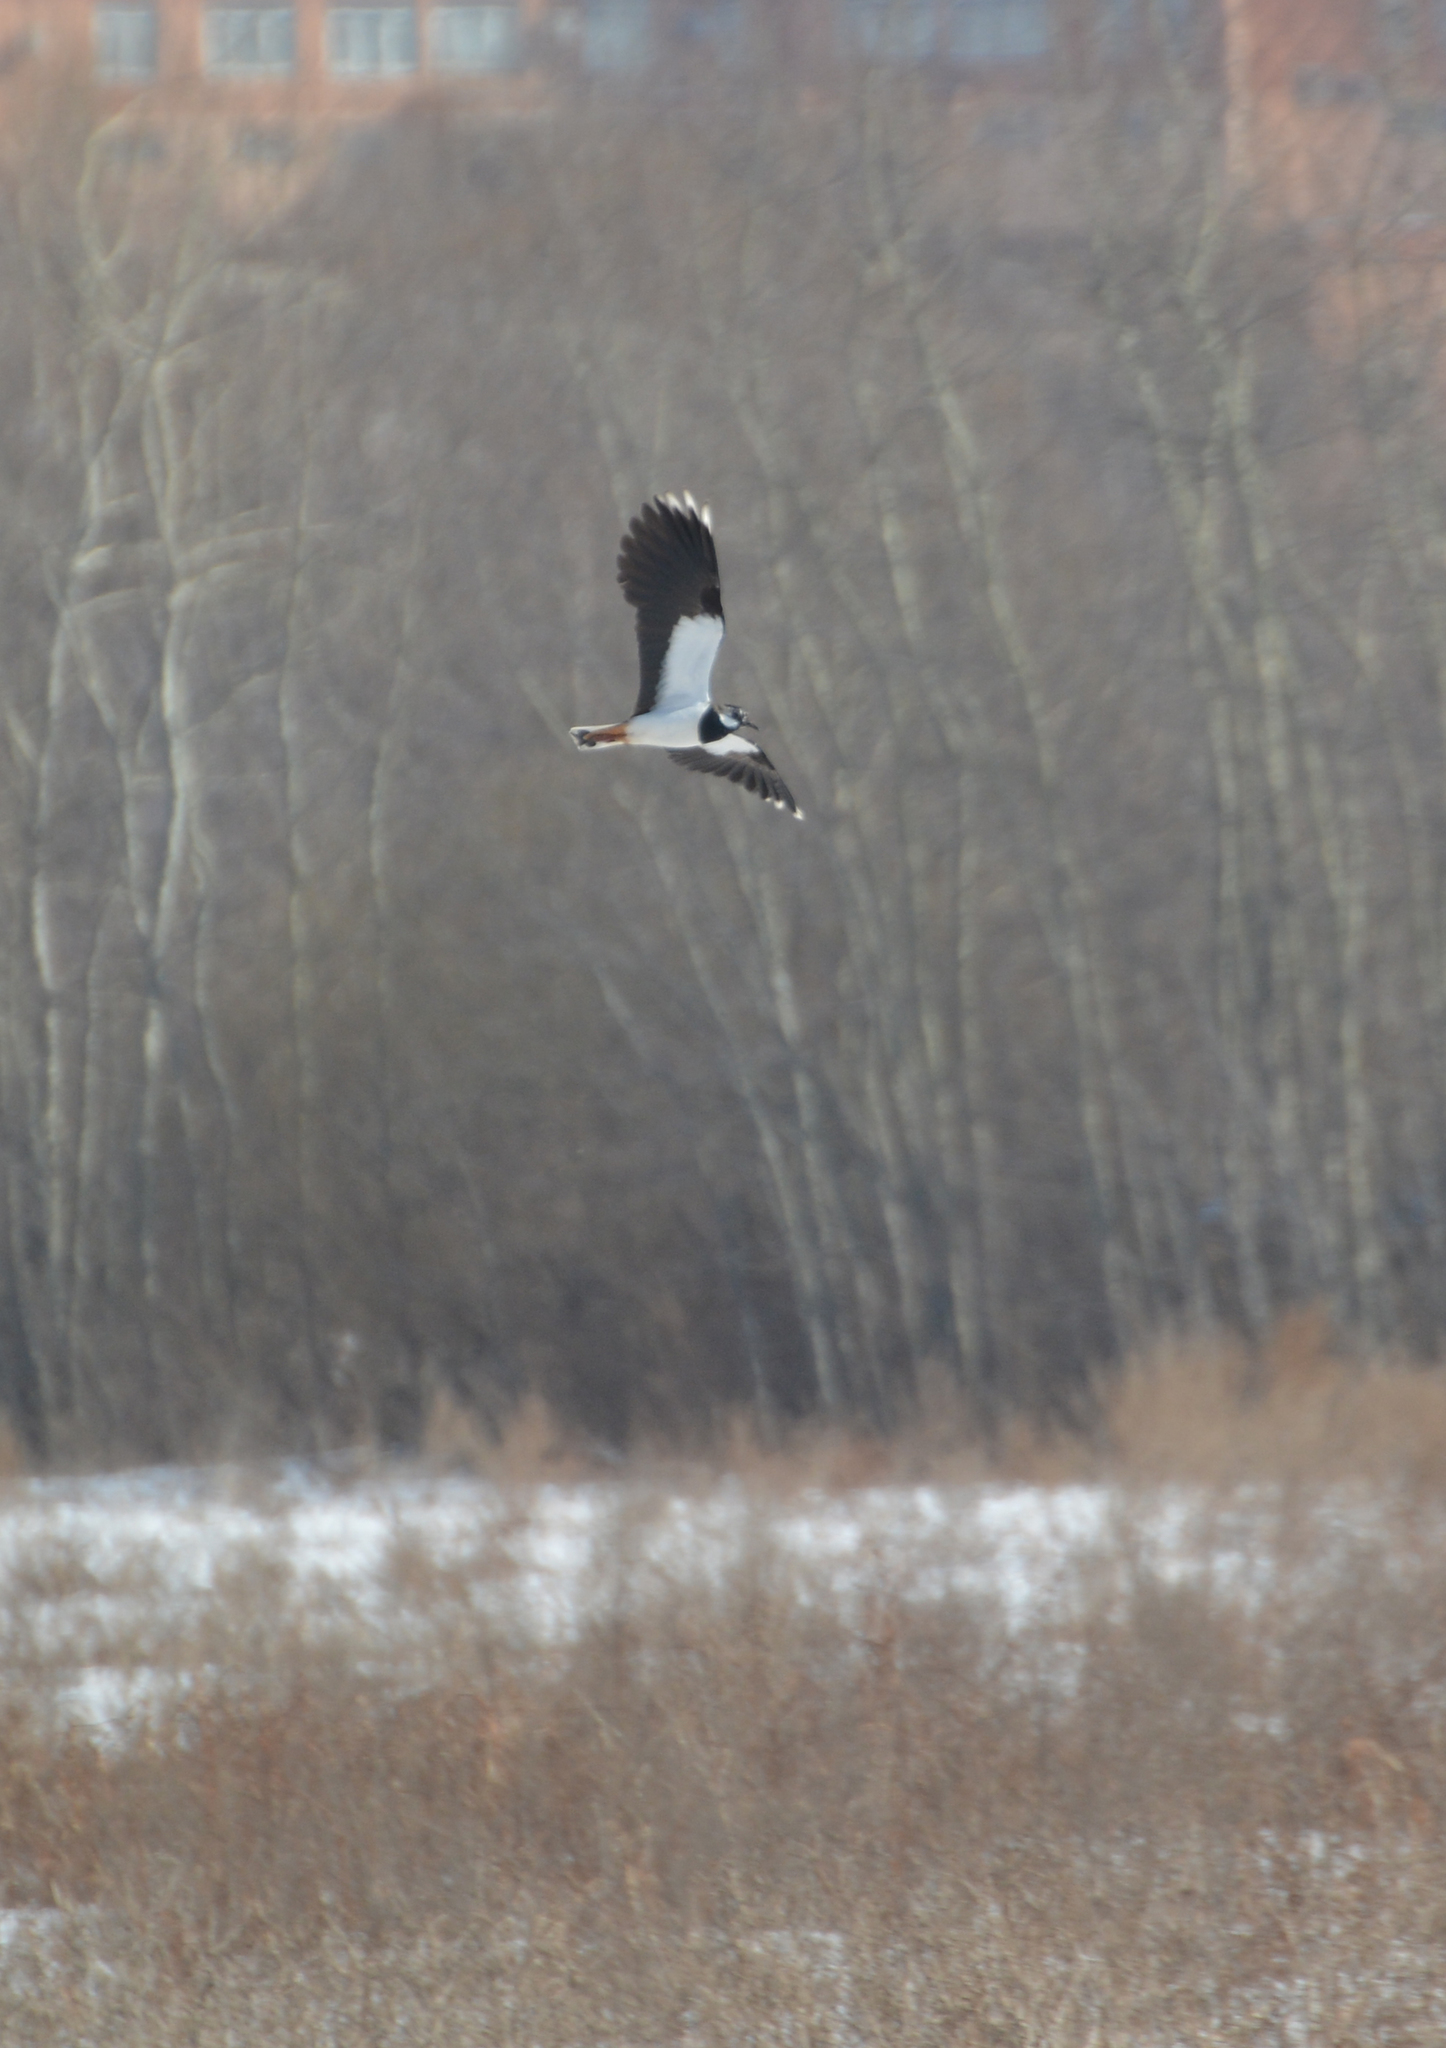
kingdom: Animalia
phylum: Chordata
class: Aves
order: Charadriiformes
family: Charadriidae
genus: Vanellus
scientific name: Vanellus vanellus
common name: Northern lapwing
